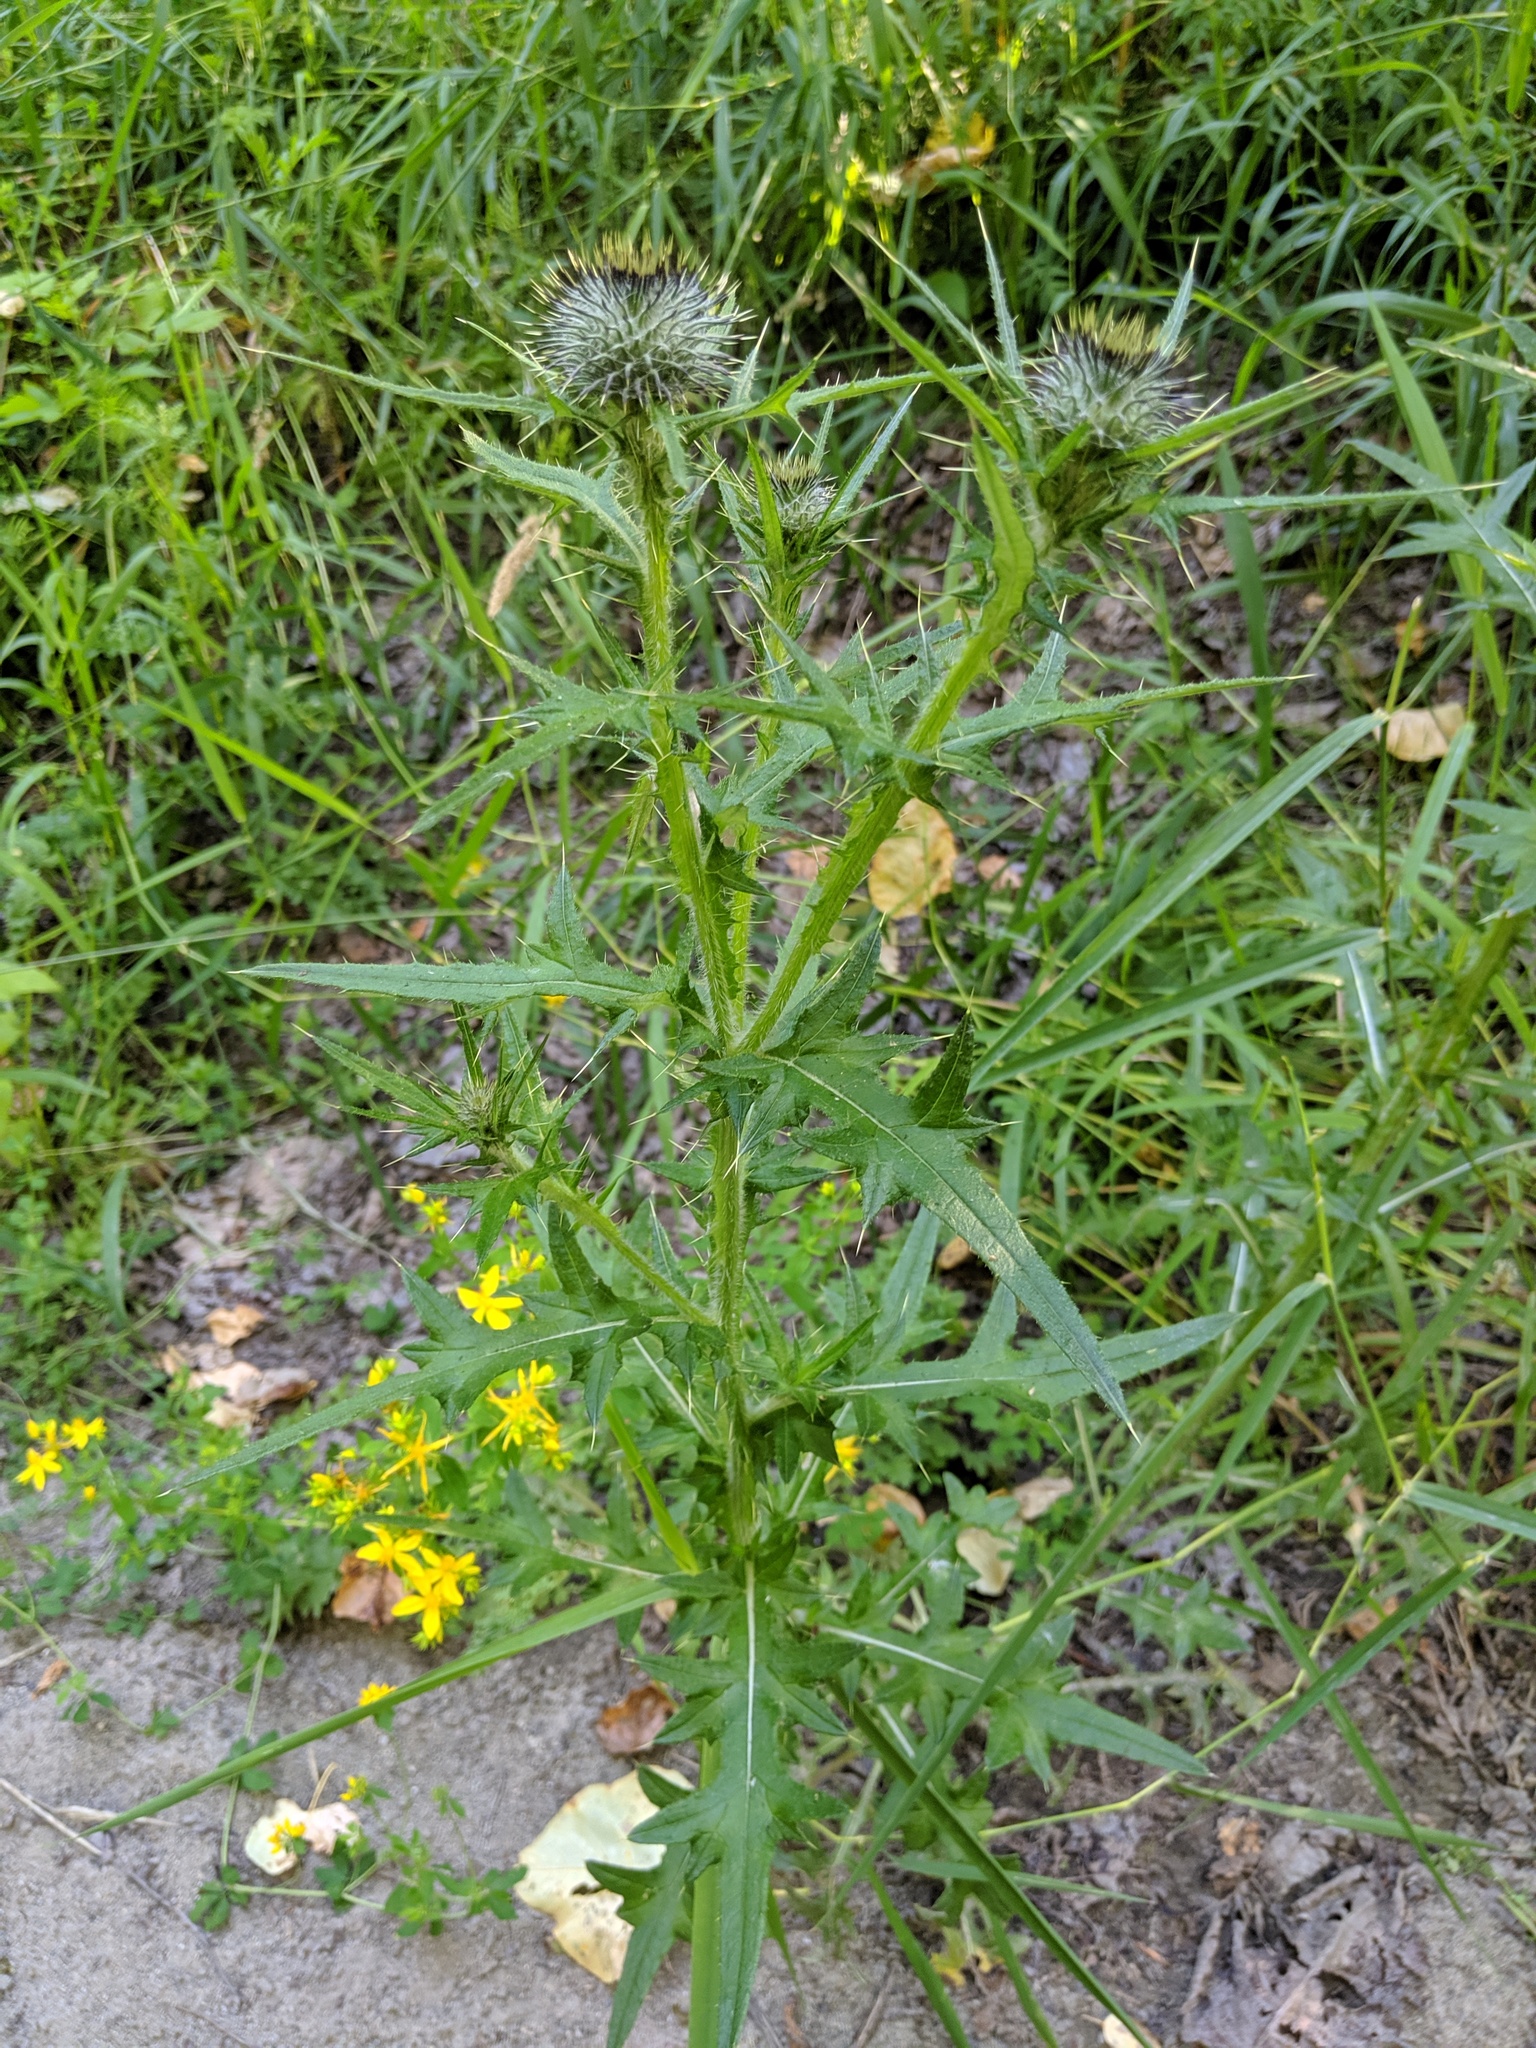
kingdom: Plantae
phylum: Tracheophyta
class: Magnoliopsida
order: Asterales
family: Asteraceae
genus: Cirsium
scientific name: Cirsium vulgare
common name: Bull thistle
